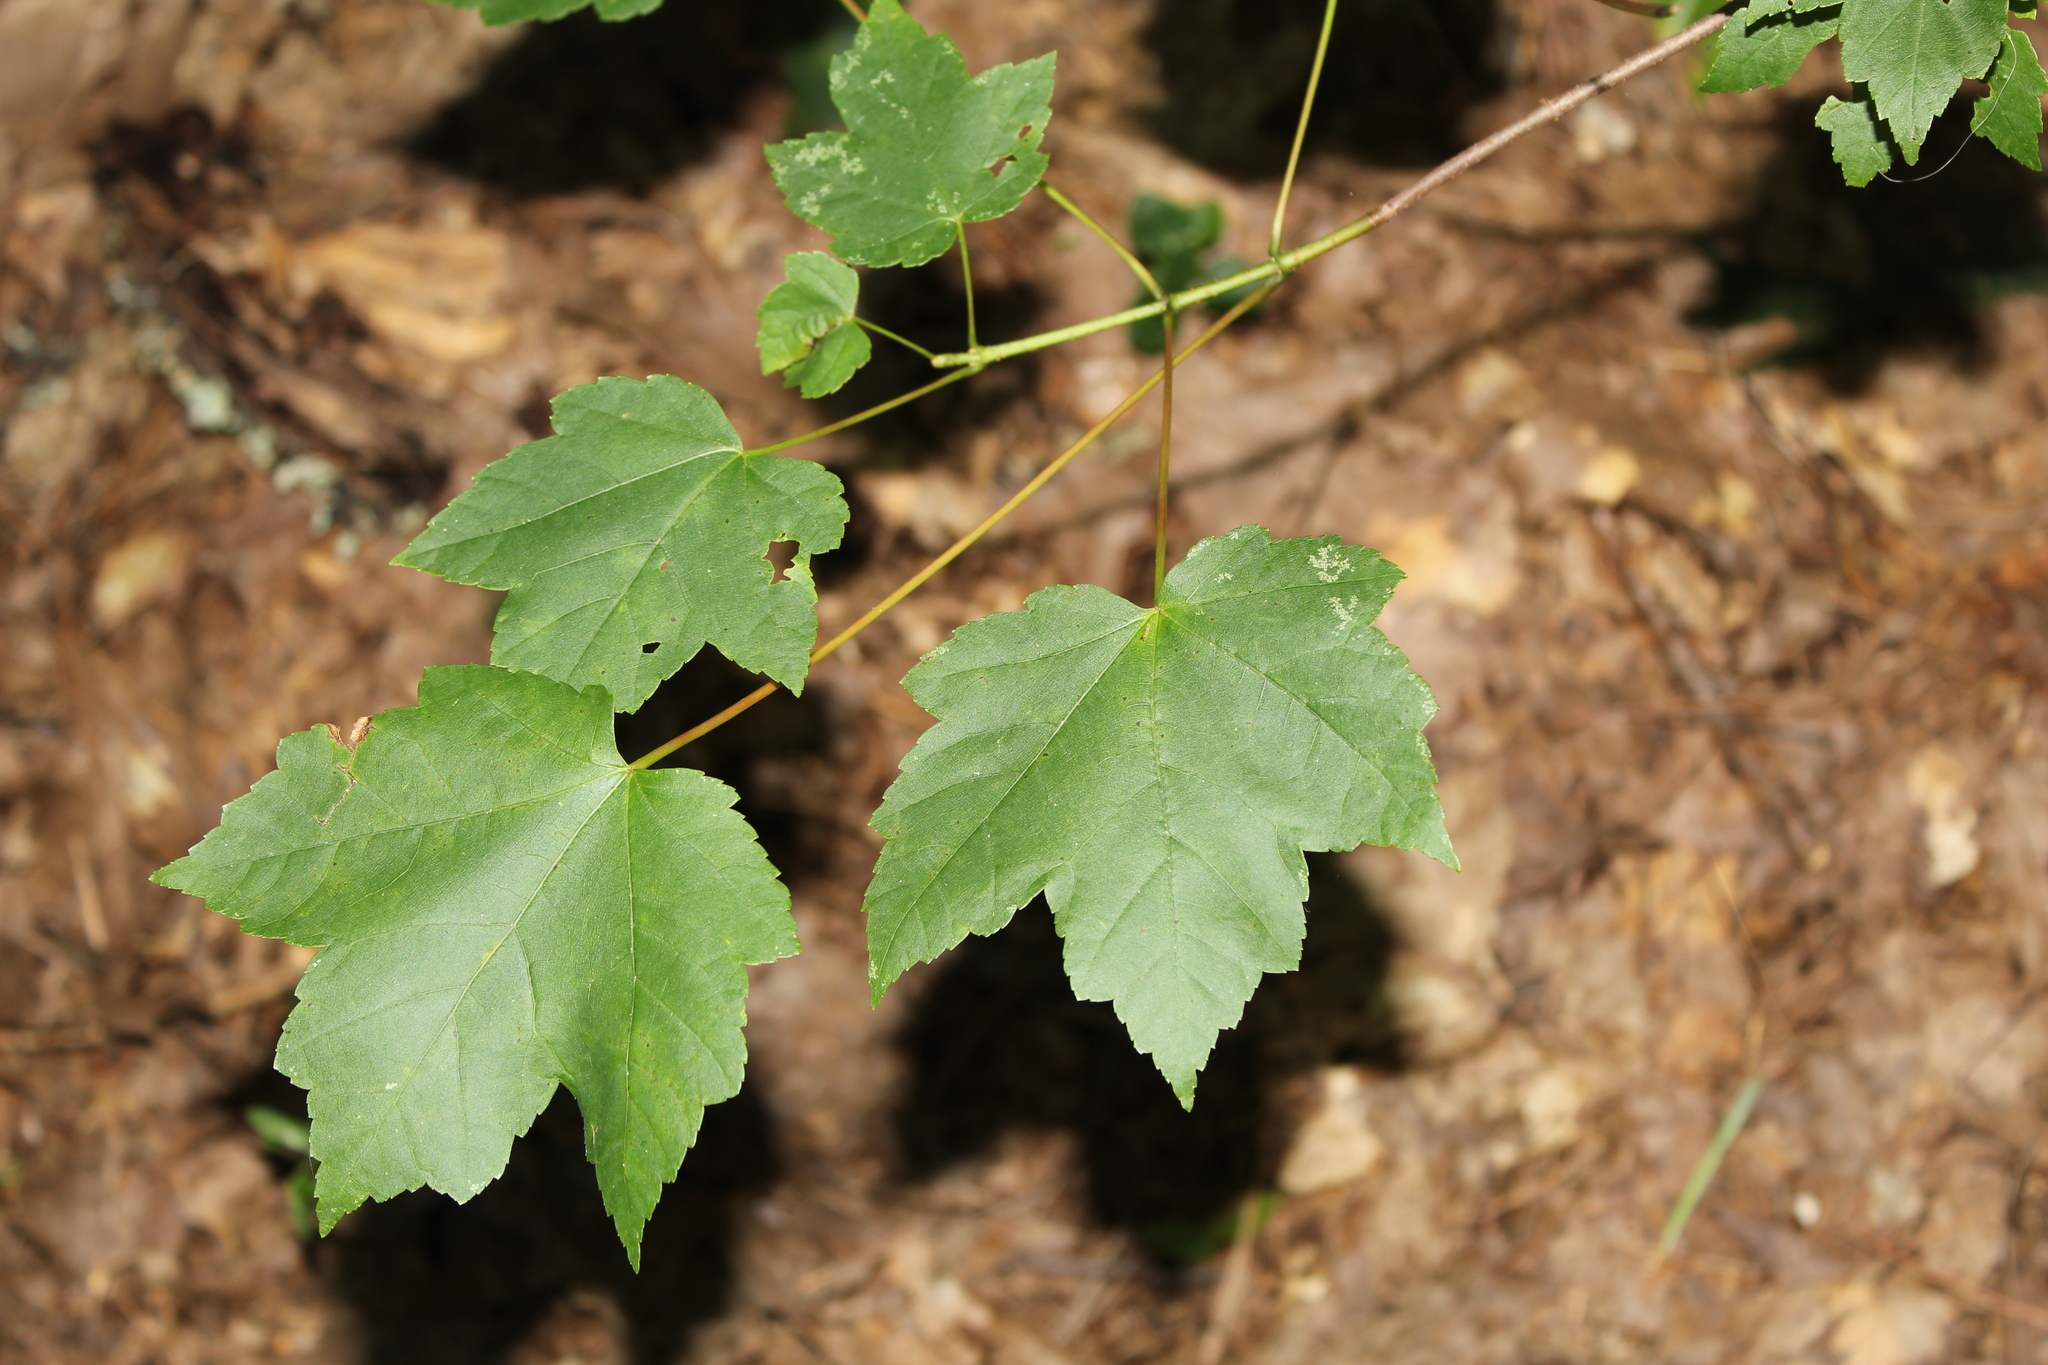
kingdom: Plantae
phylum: Tracheophyta
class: Magnoliopsida
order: Sapindales
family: Sapindaceae
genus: Acer
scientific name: Acer rubrum
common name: Red maple
